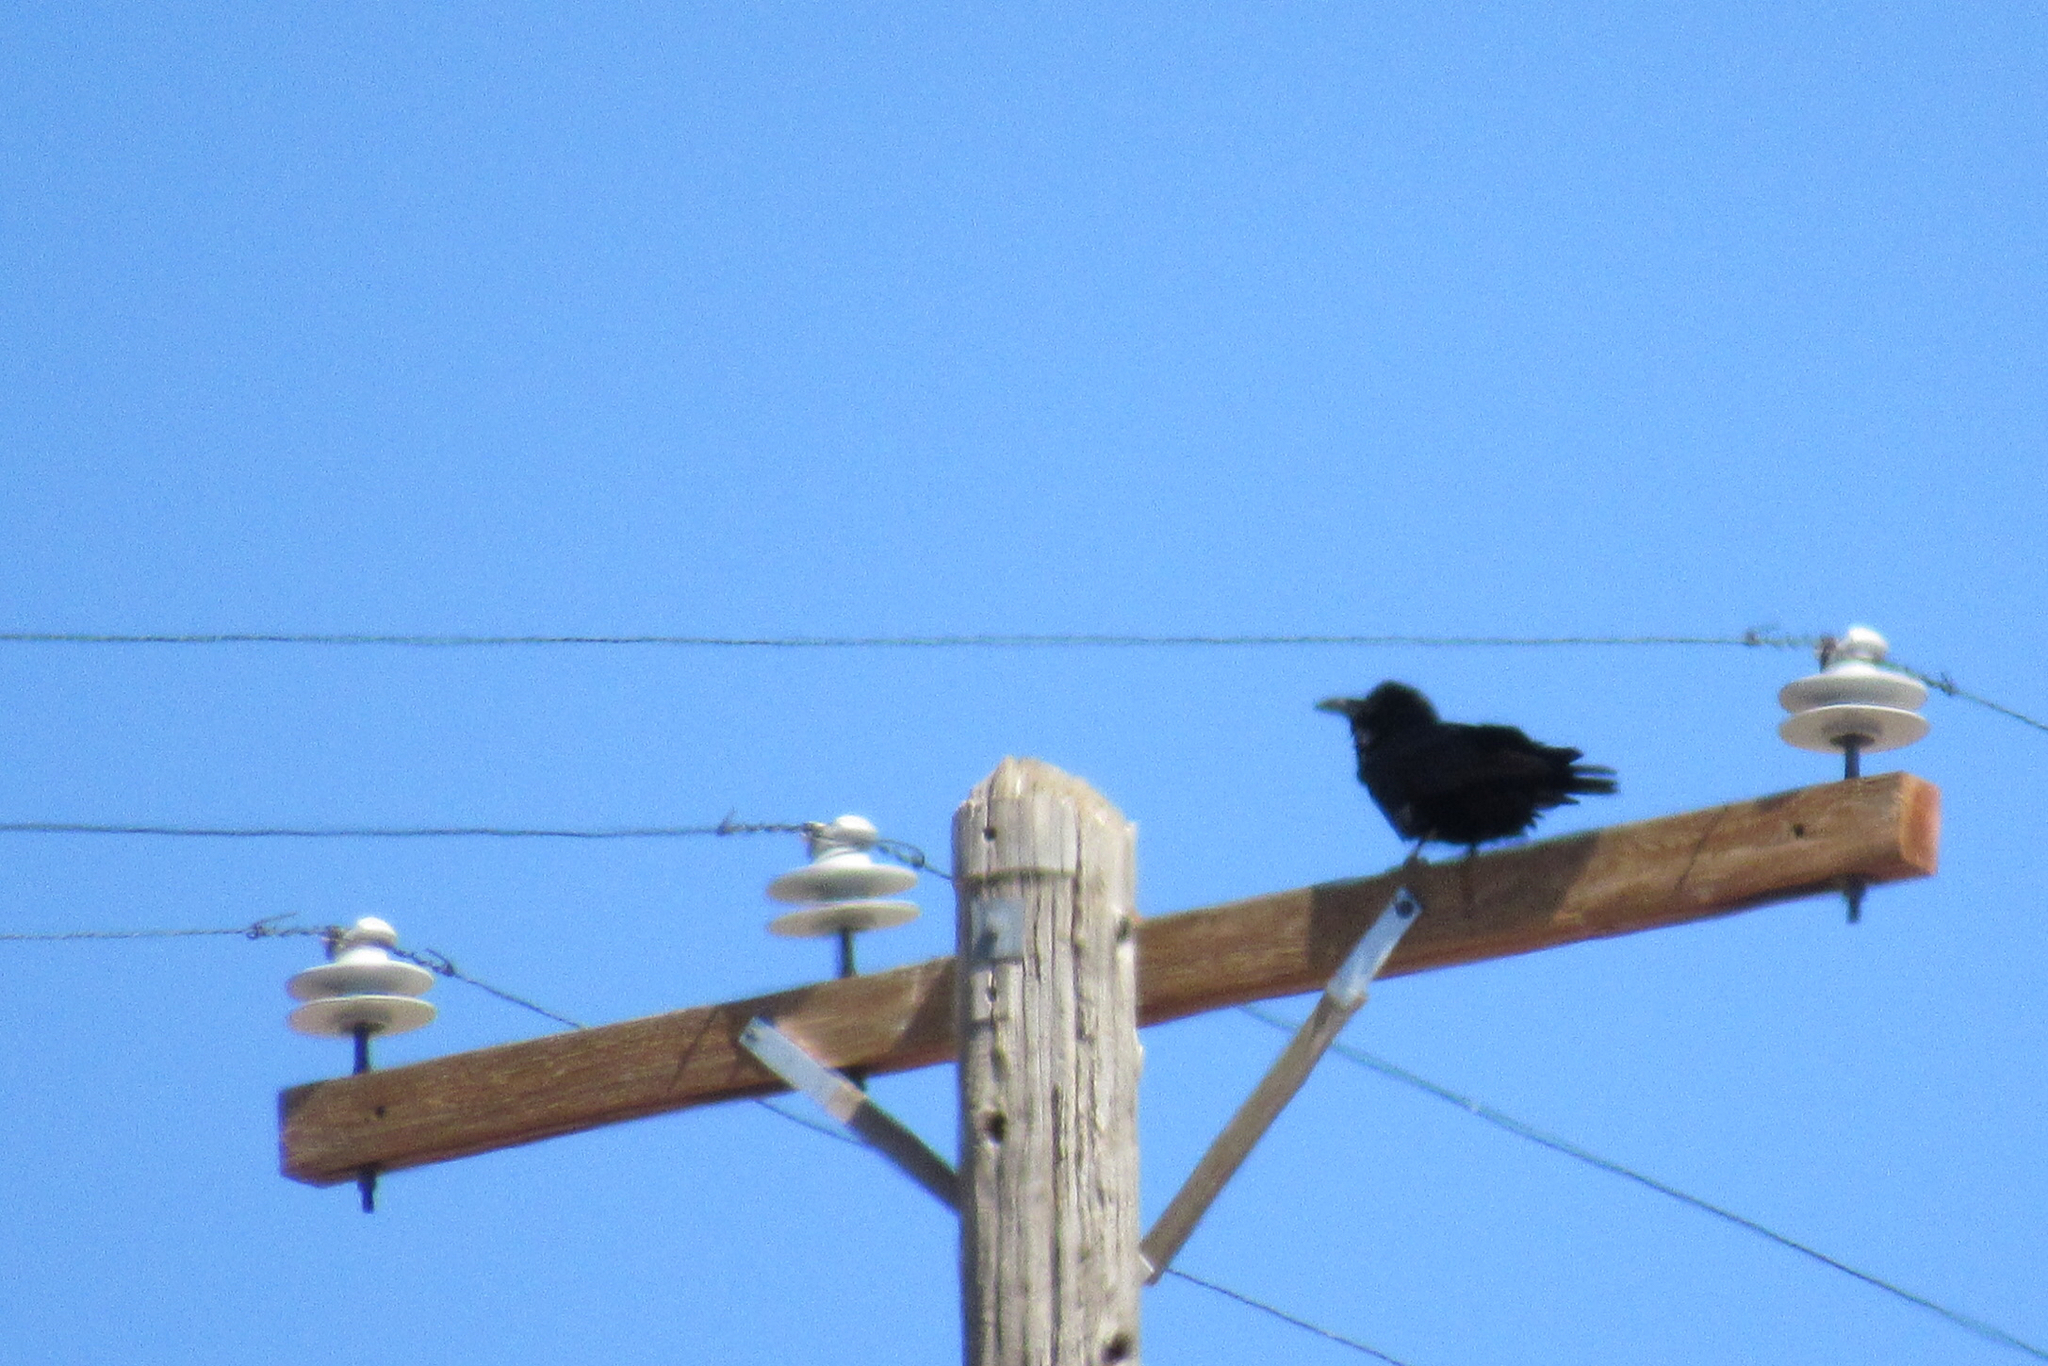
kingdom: Animalia
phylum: Chordata
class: Aves
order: Passeriformes
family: Corvidae
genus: Corvus
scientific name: Corvus corax
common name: Common raven
